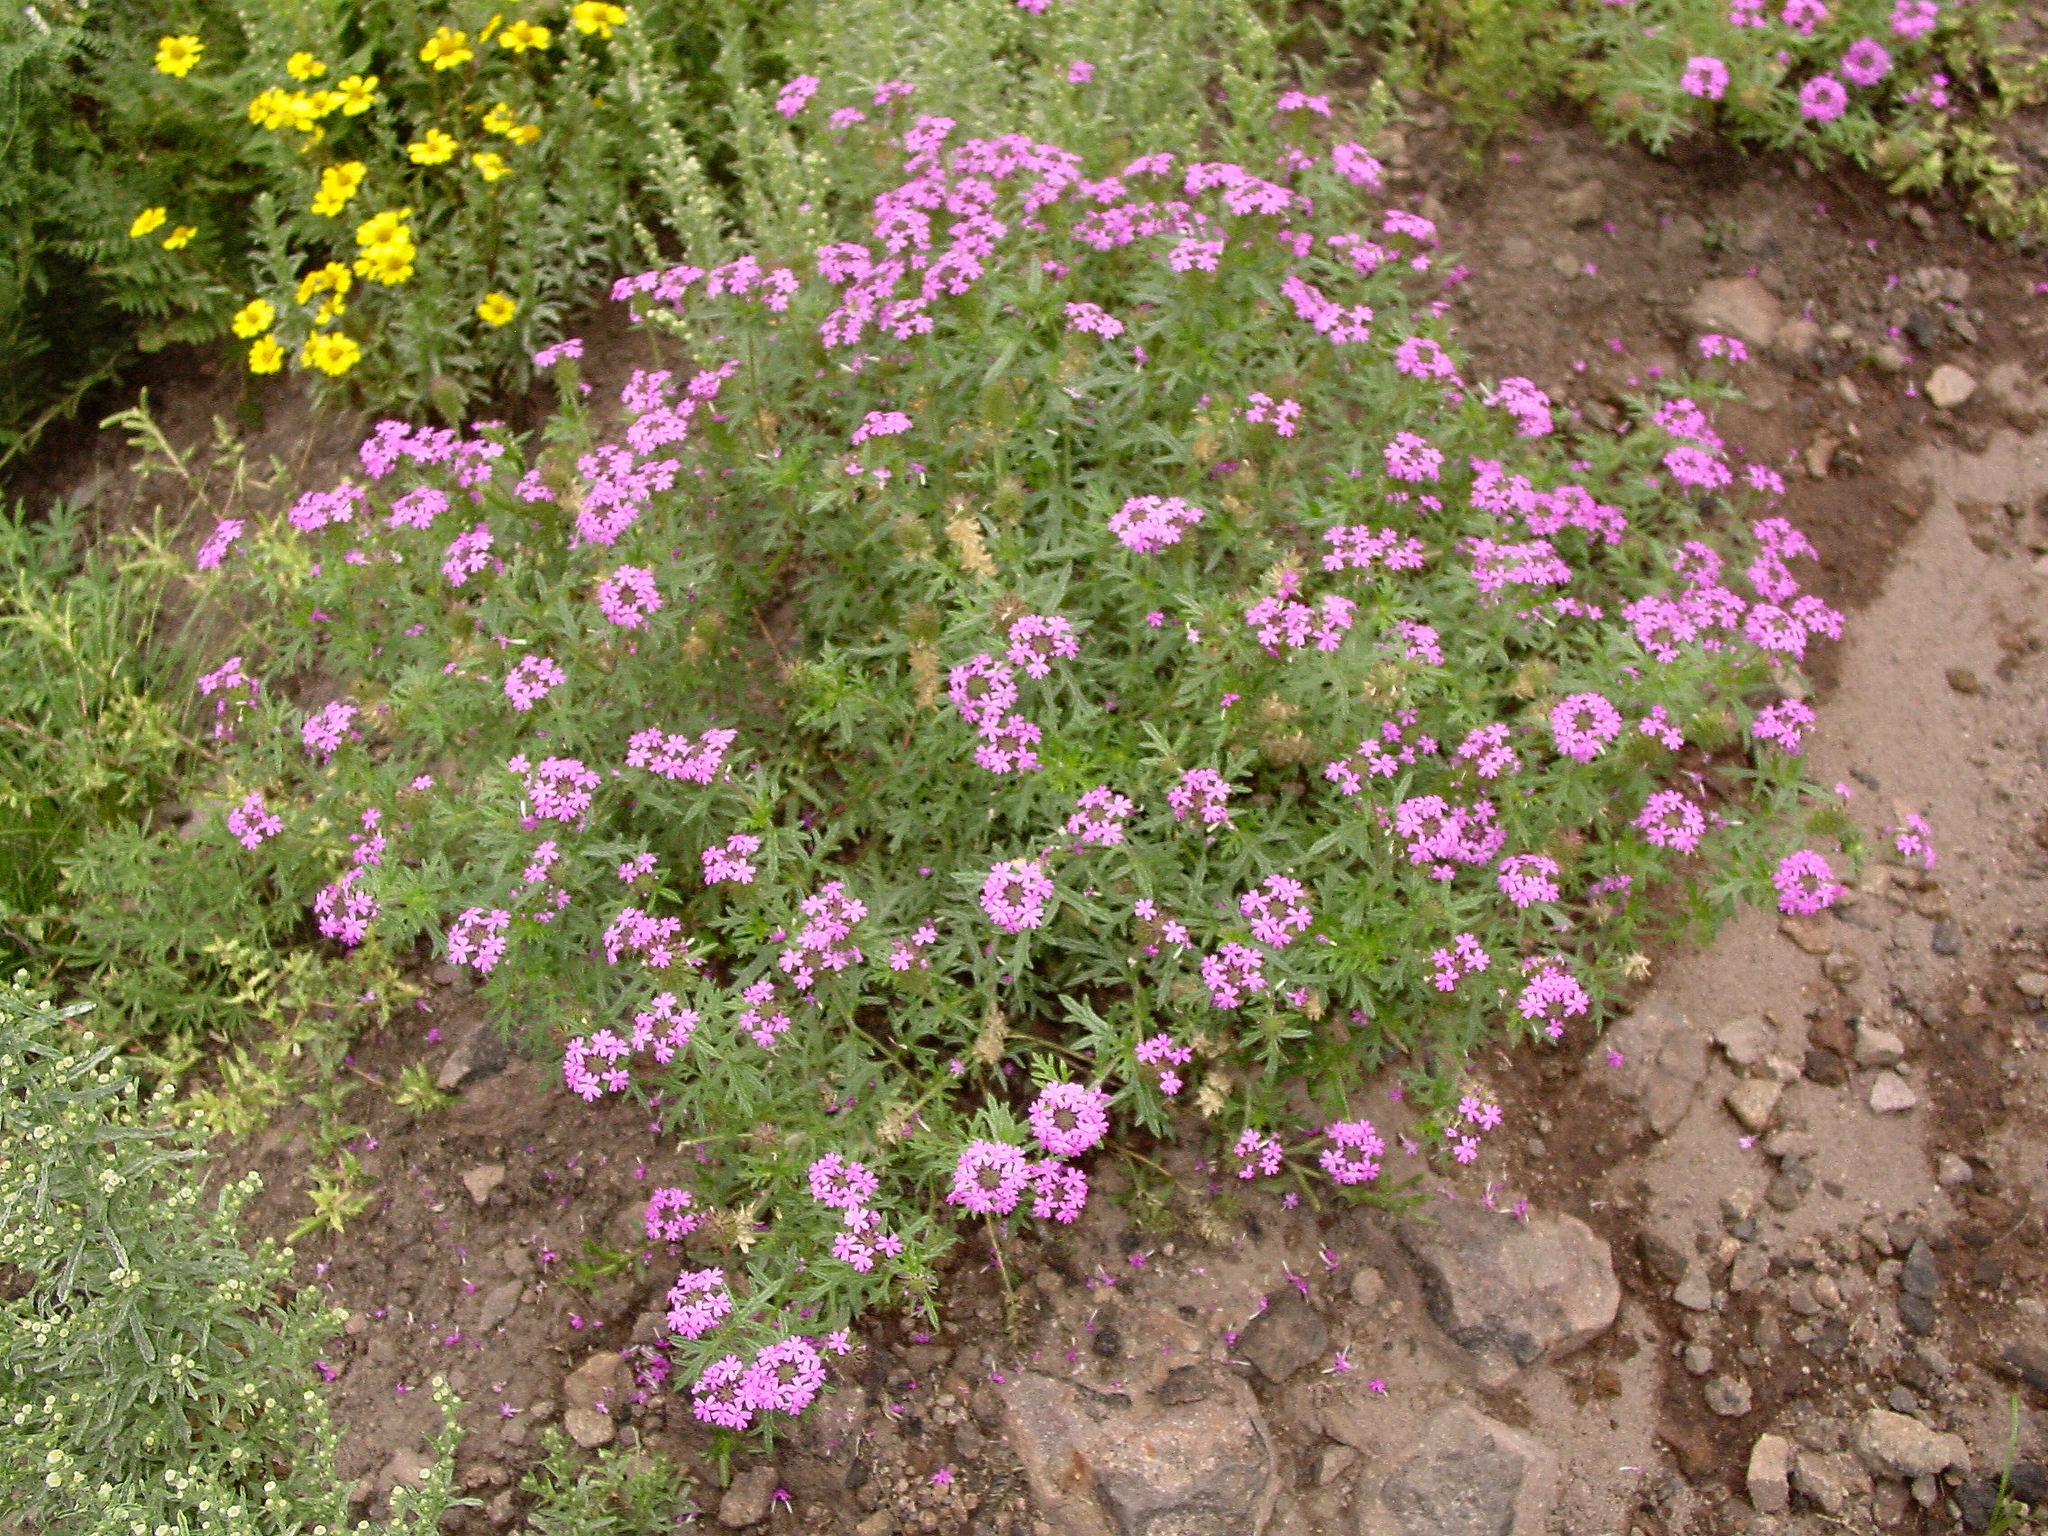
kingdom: Plantae
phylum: Tracheophyta
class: Magnoliopsida
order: Lamiales
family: Verbenaceae
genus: Verbena
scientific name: Verbena chiricahensis
